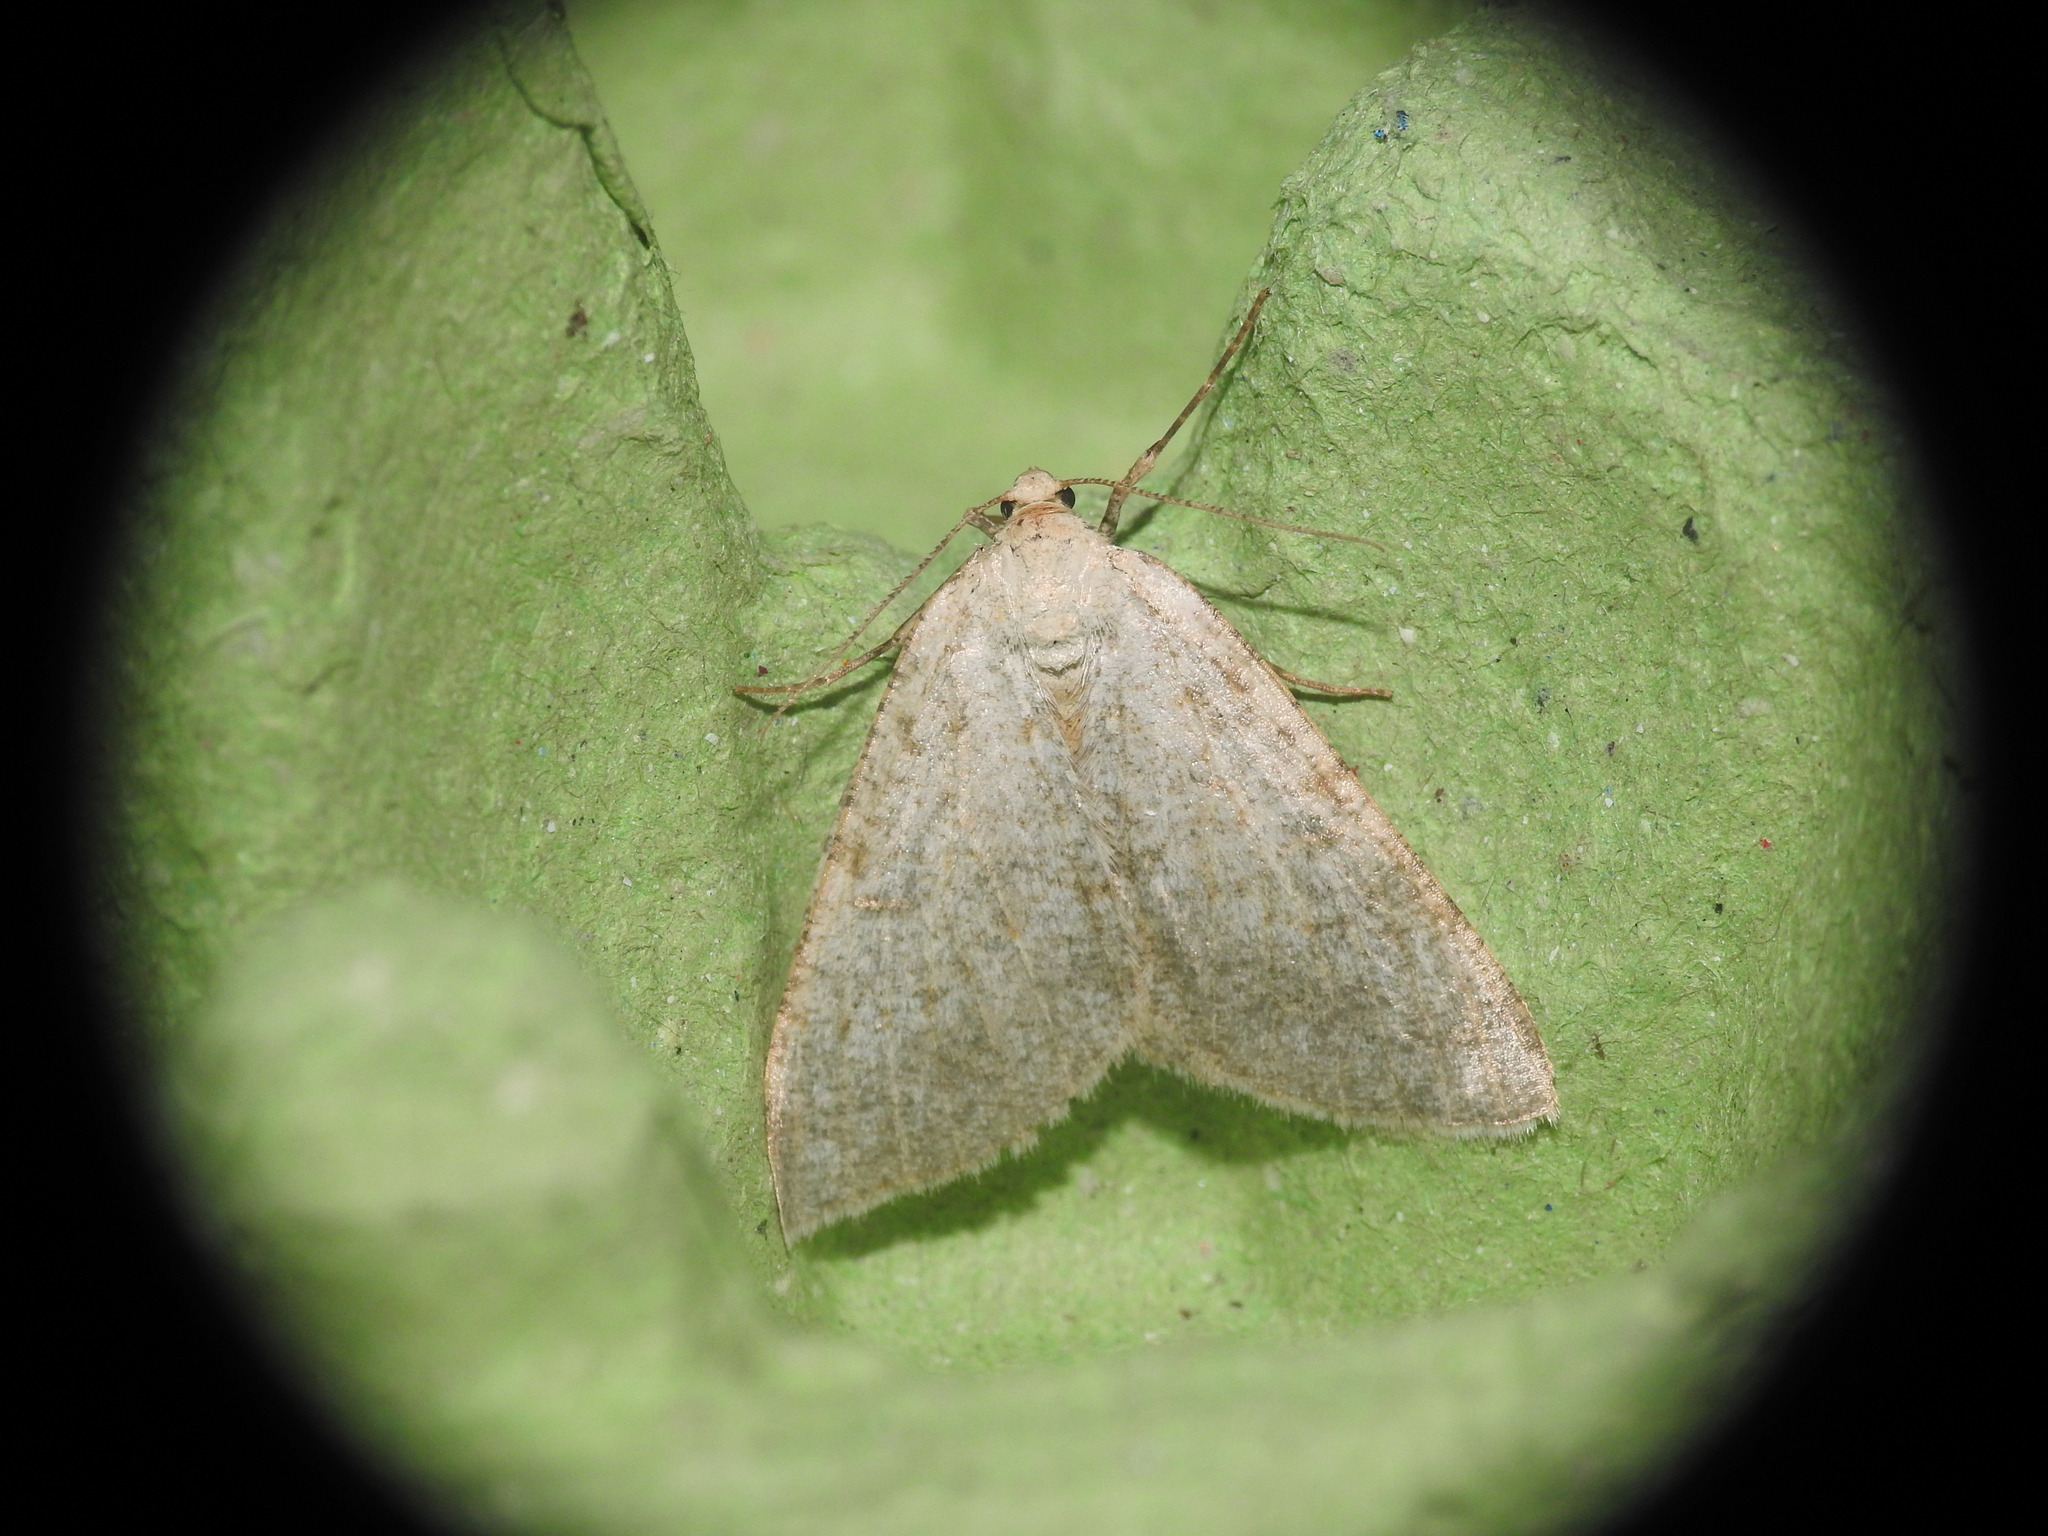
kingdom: Animalia
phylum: Arthropoda
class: Insecta
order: Lepidoptera
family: Geometridae
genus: Isturgia
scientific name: Isturgia miniosaria
